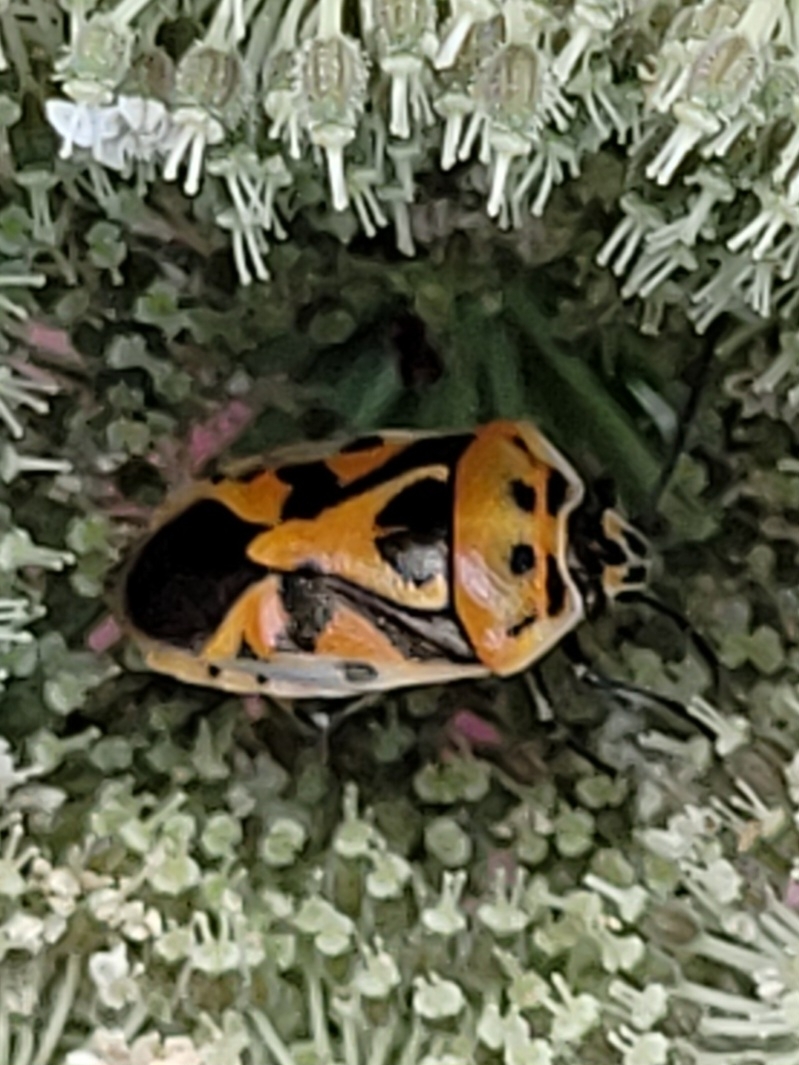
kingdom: Animalia
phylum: Arthropoda
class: Insecta
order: Hemiptera
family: Pentatomidae
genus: Eurydema
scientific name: Eurydema ornata
